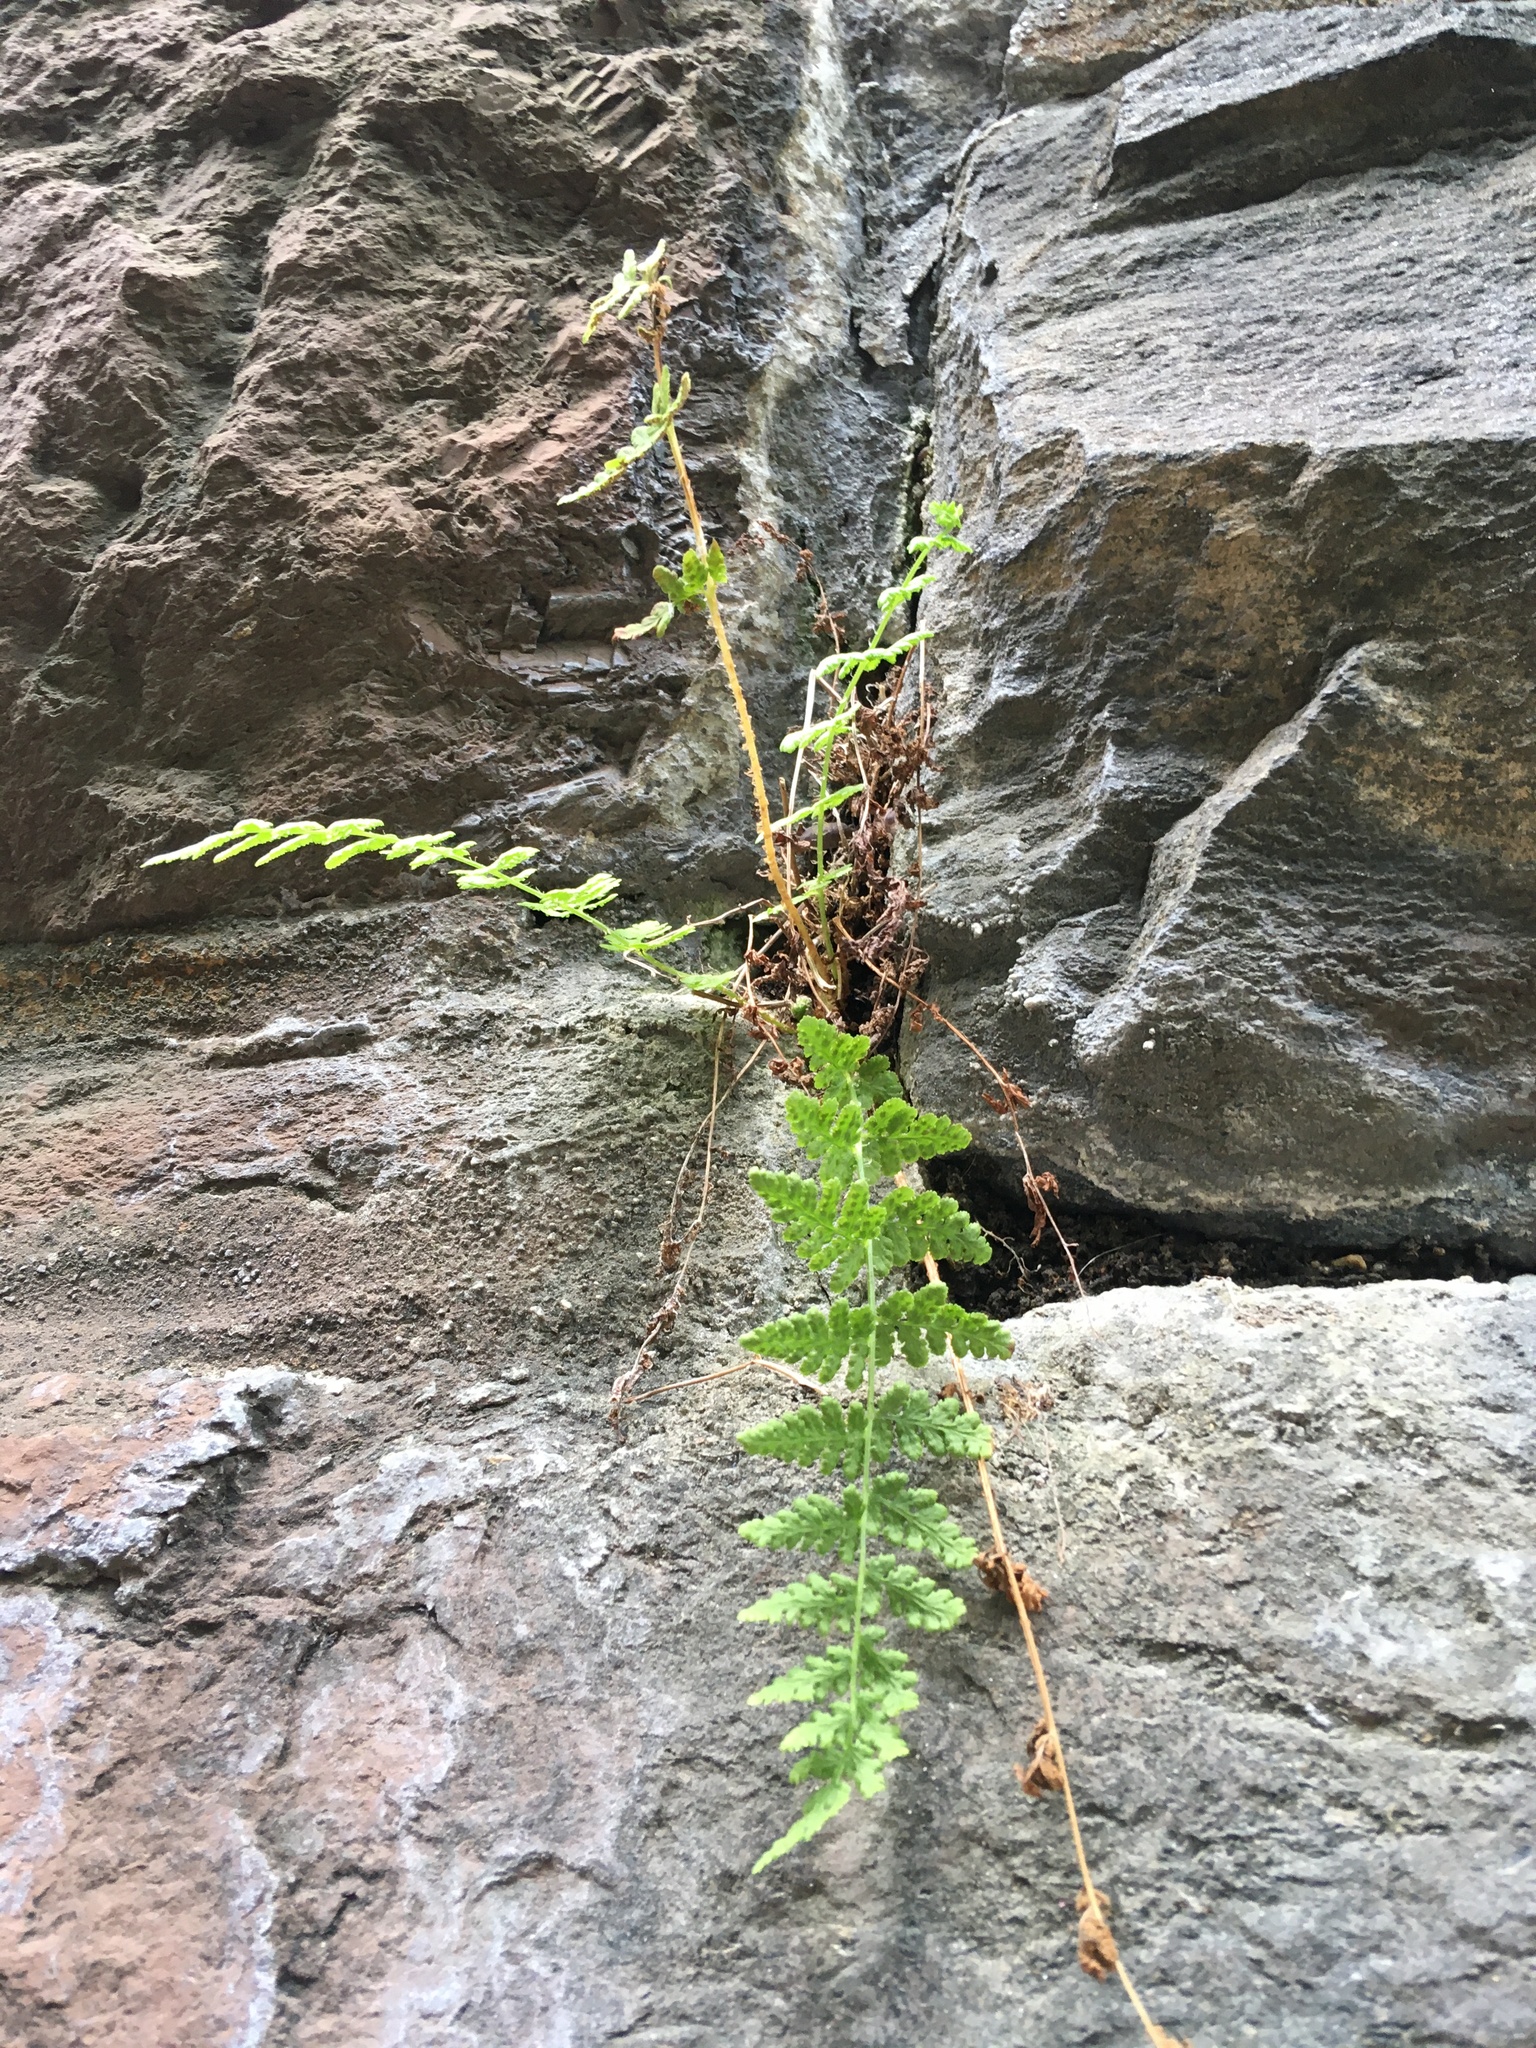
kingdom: Plantae
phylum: Tracheophyta
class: Polypodiopsida
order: Polypodiales
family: Woodsiaceae
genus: Physematium
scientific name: Physematium obtusum
